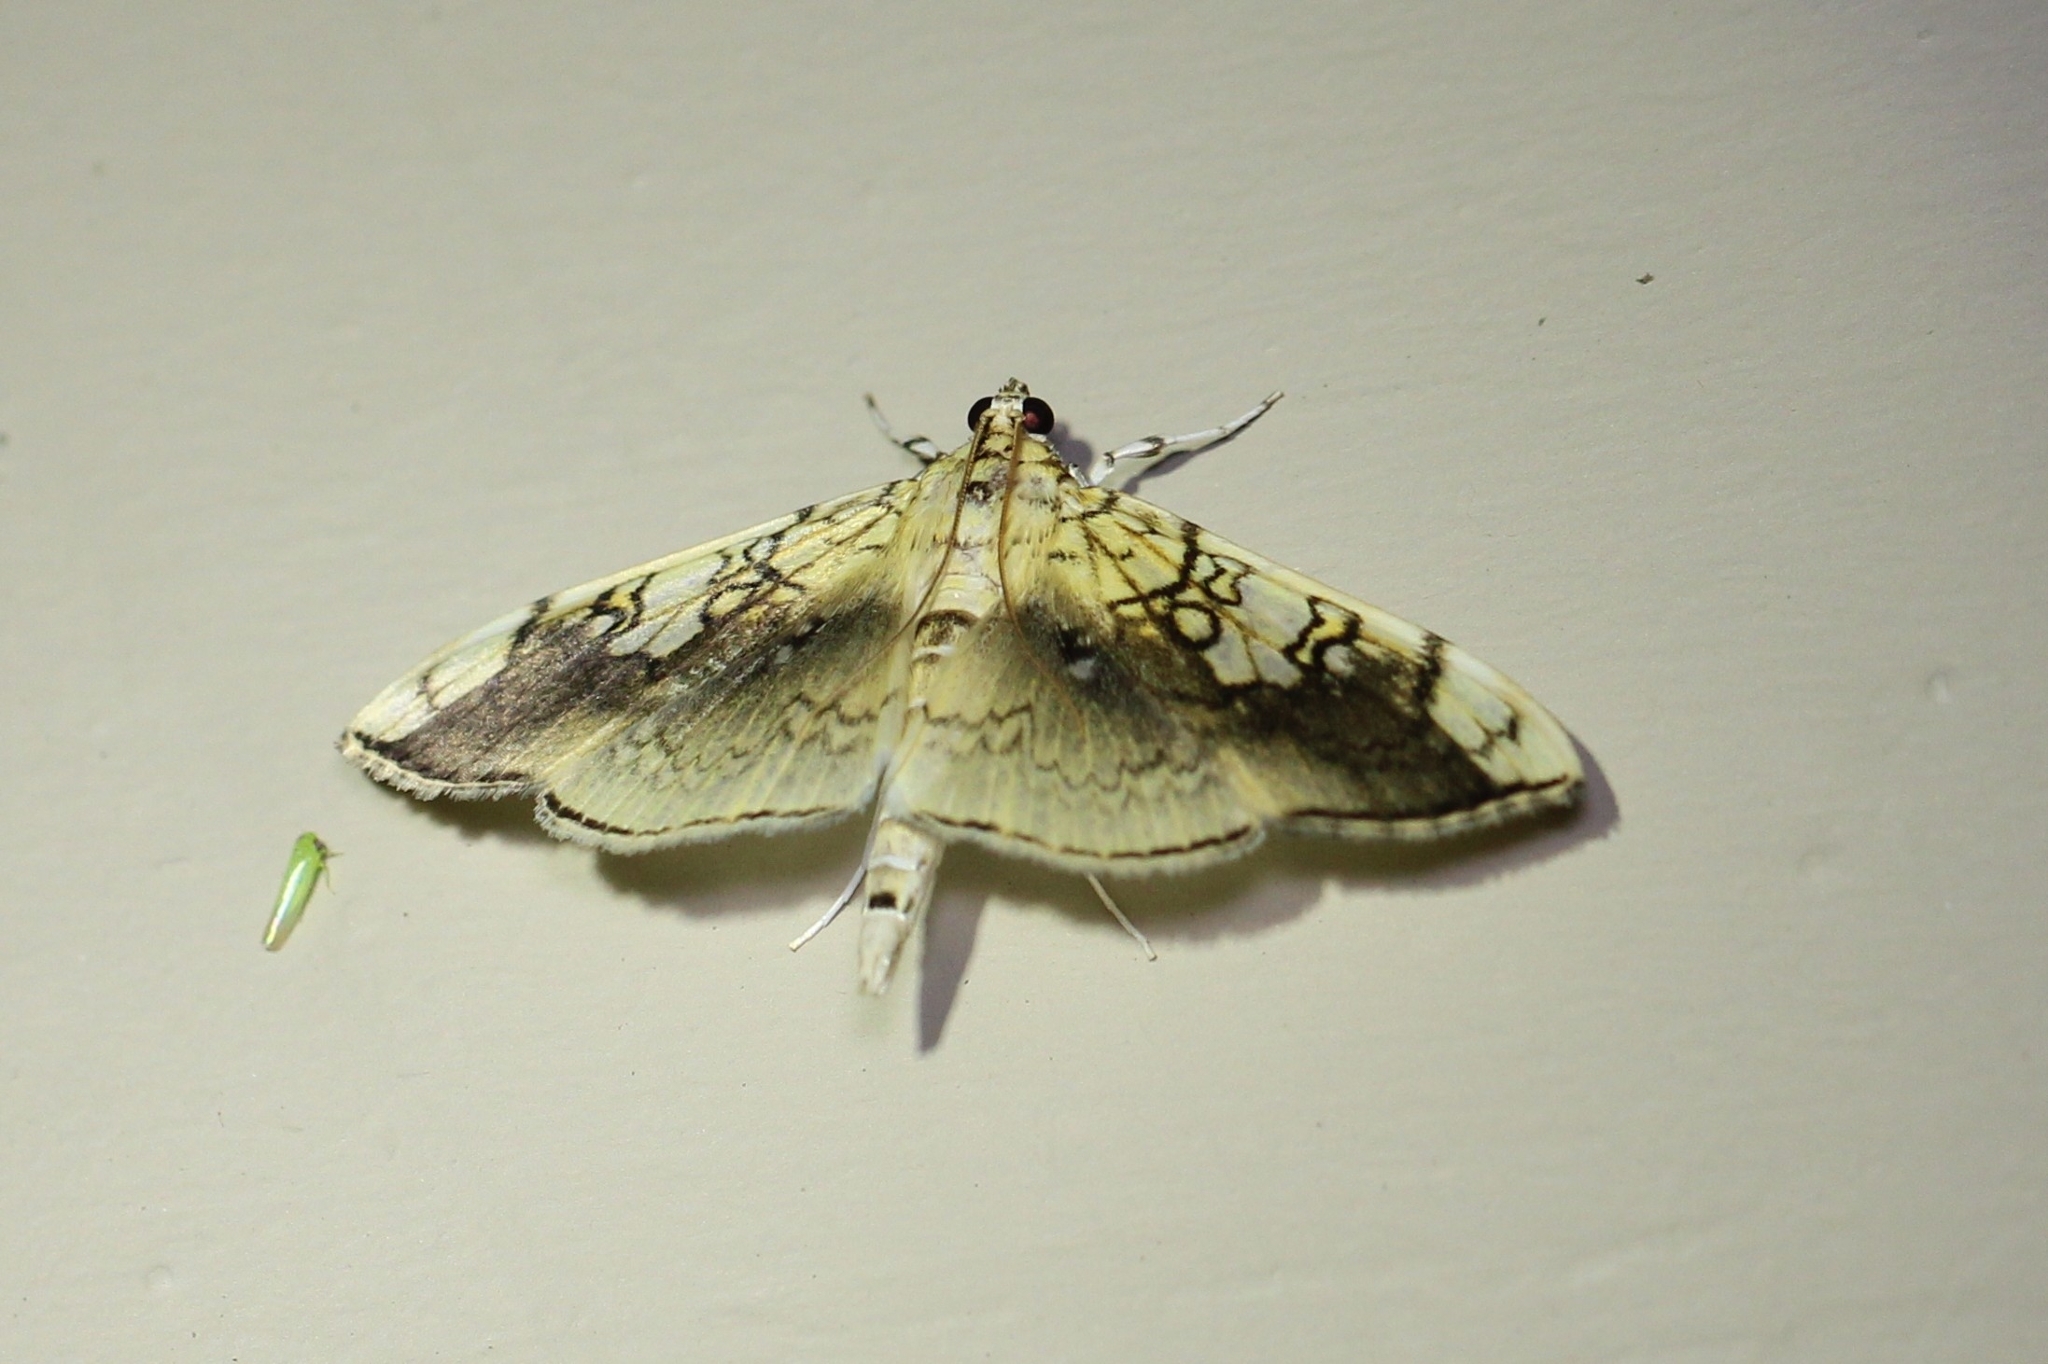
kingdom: Animalia
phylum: Arthropoda
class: Insecta
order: Lepidoptera
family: Crambidae
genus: Pantographa
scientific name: Pantographa limata
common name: Basswood leafroller moth
